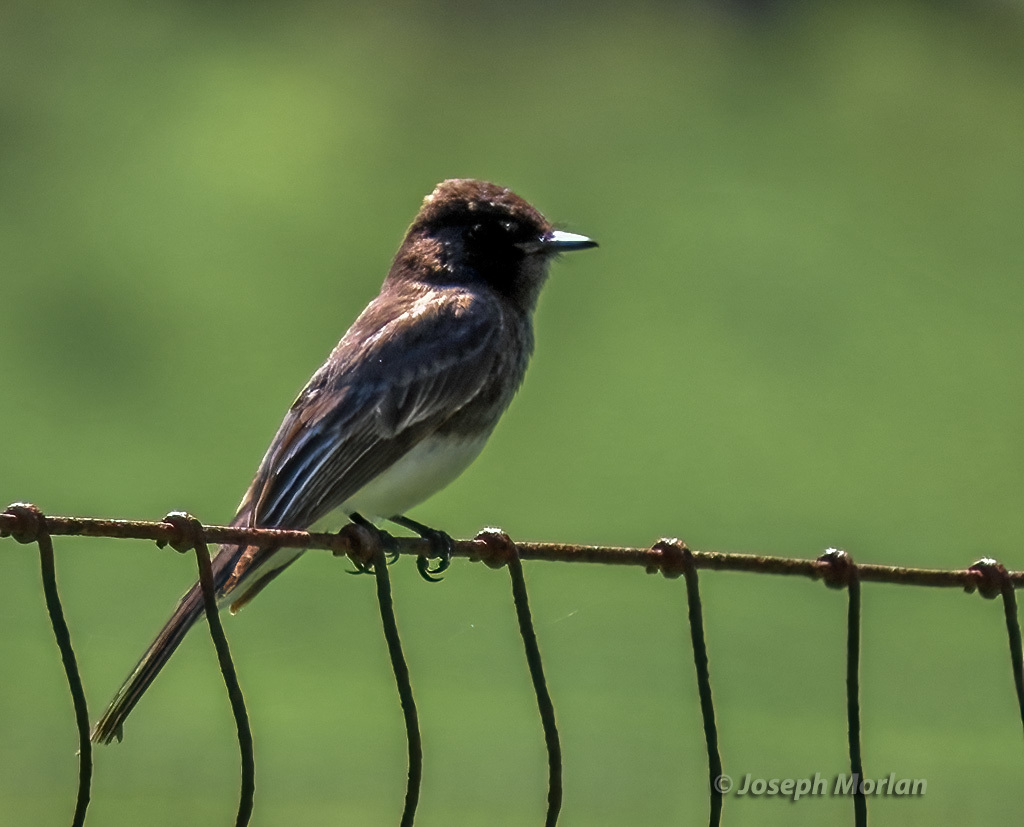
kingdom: Animalia
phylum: Chordata
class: Aves
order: Passeriformes
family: Tyrannidae
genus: Sayornis
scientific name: Sayornis nigricans
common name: Black phoebe
